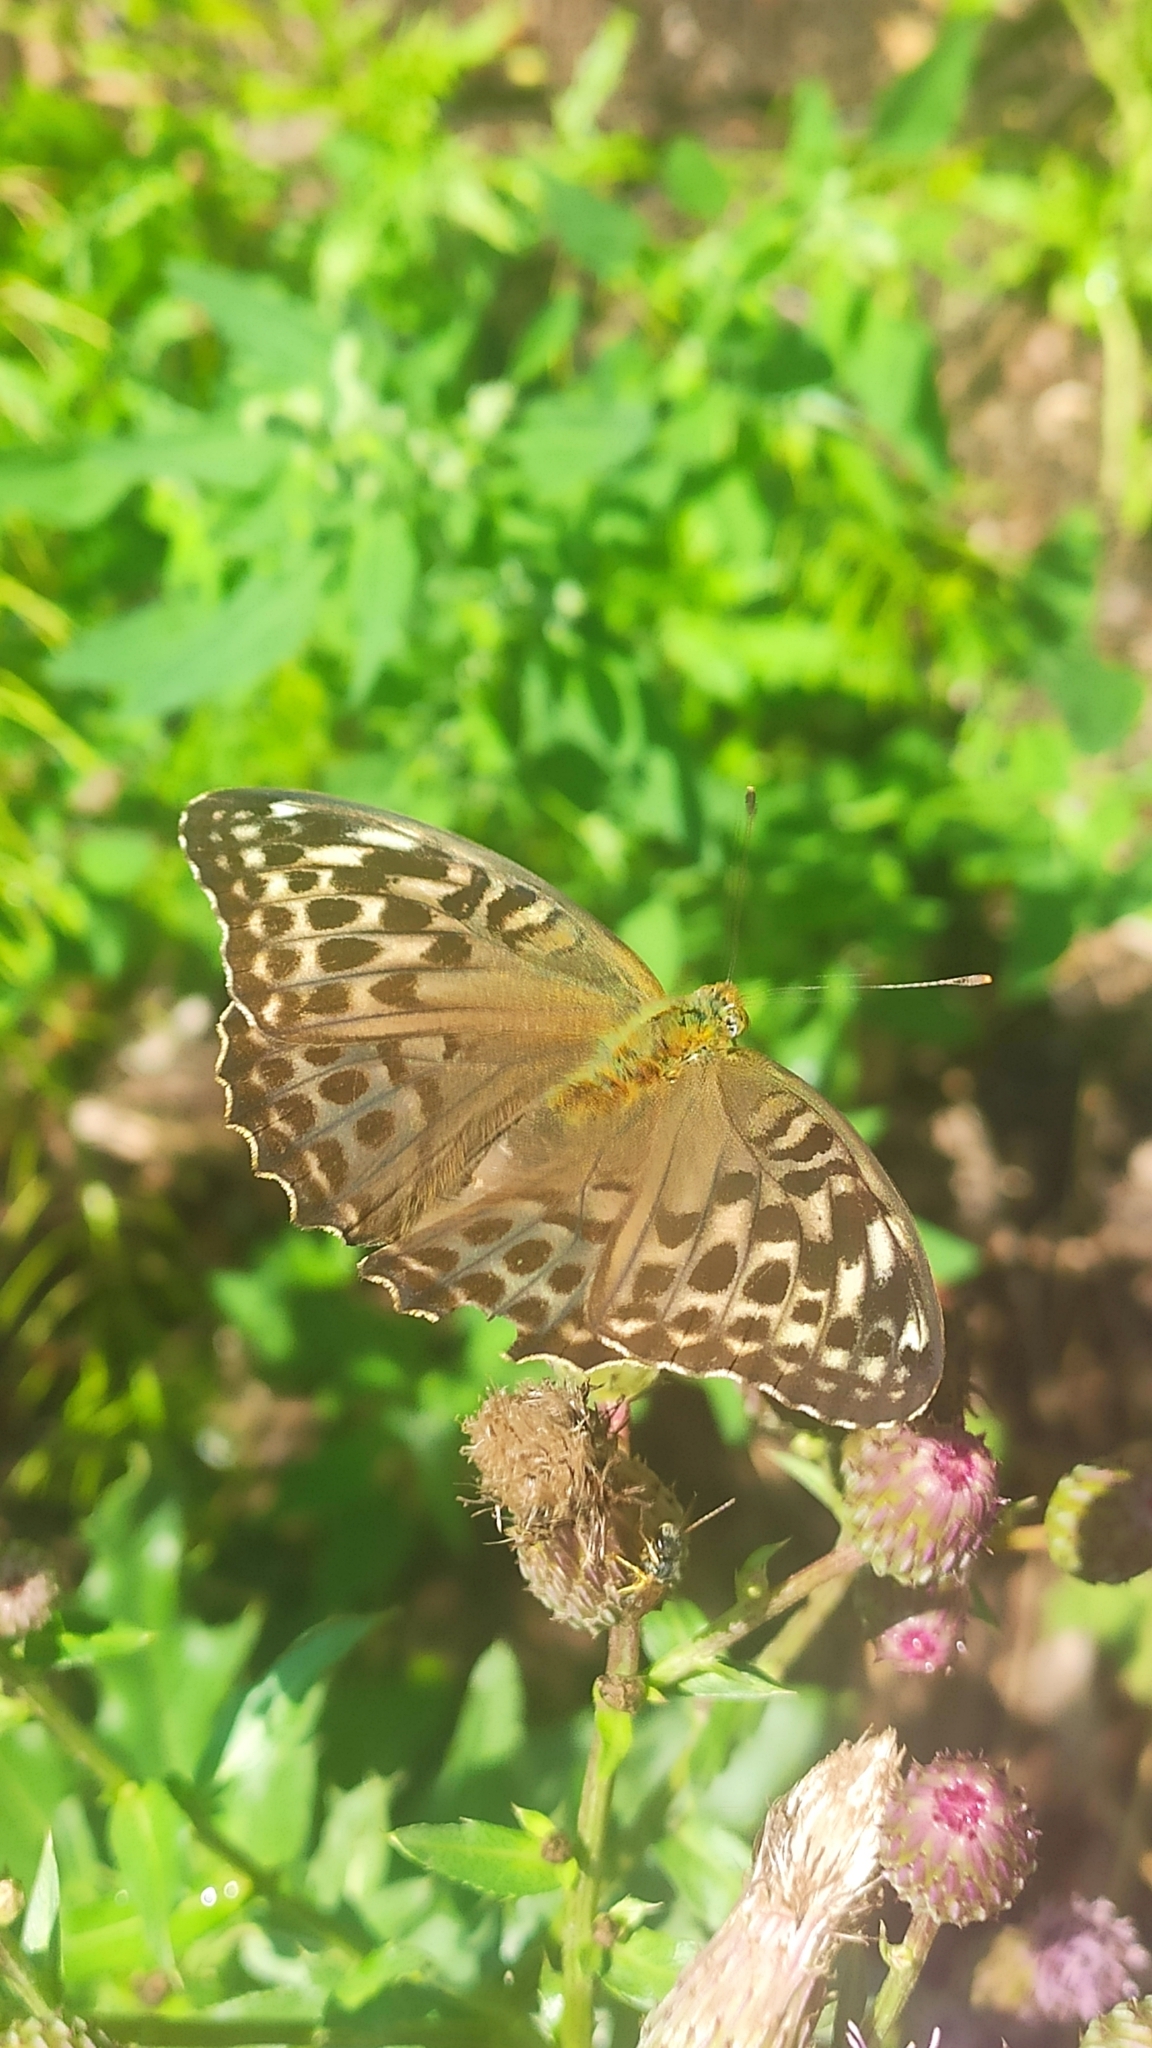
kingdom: Animalia
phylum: Arthropoda
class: Insecta
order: Lepidoptera
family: Nymphalidae
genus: Argynnis
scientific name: Argynnis paphia
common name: Silver-washed fritillary
